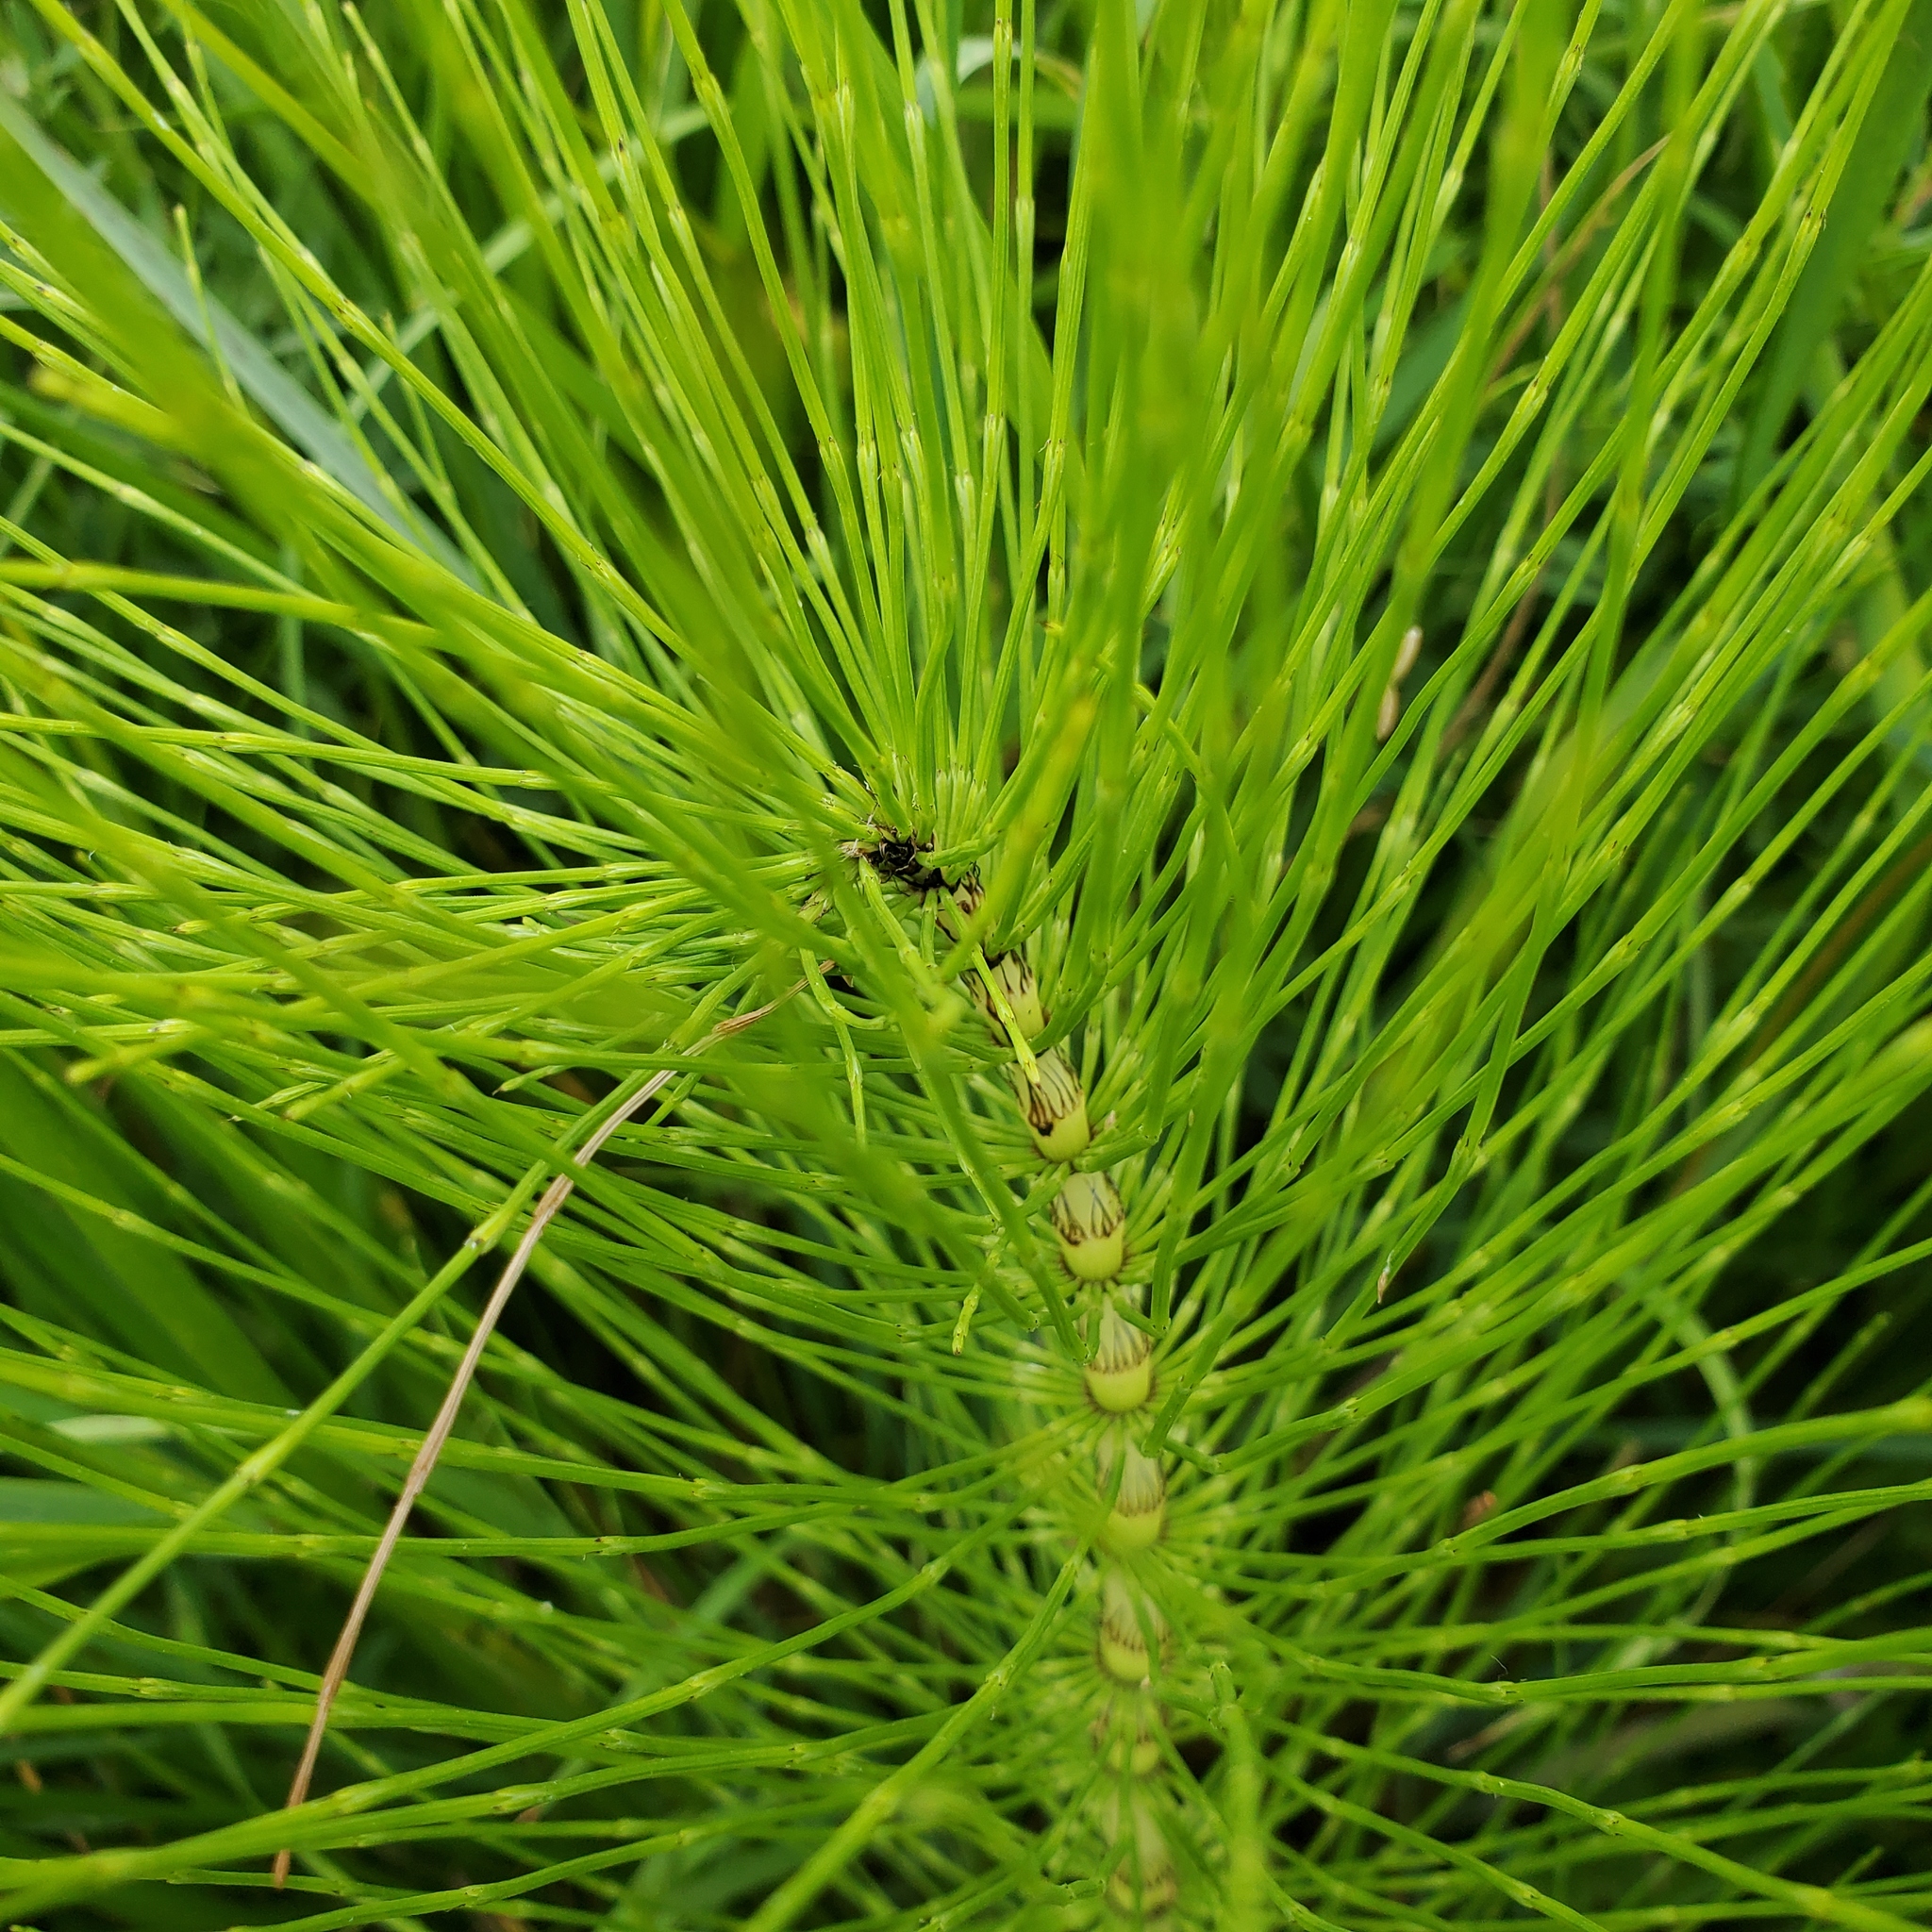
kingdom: Plantae
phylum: Tracheophyta
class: Polypodiopsida
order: Equisetales
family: Equisetaceae
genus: Equisetum
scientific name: Equisetum telmateia
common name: Great horsetail
